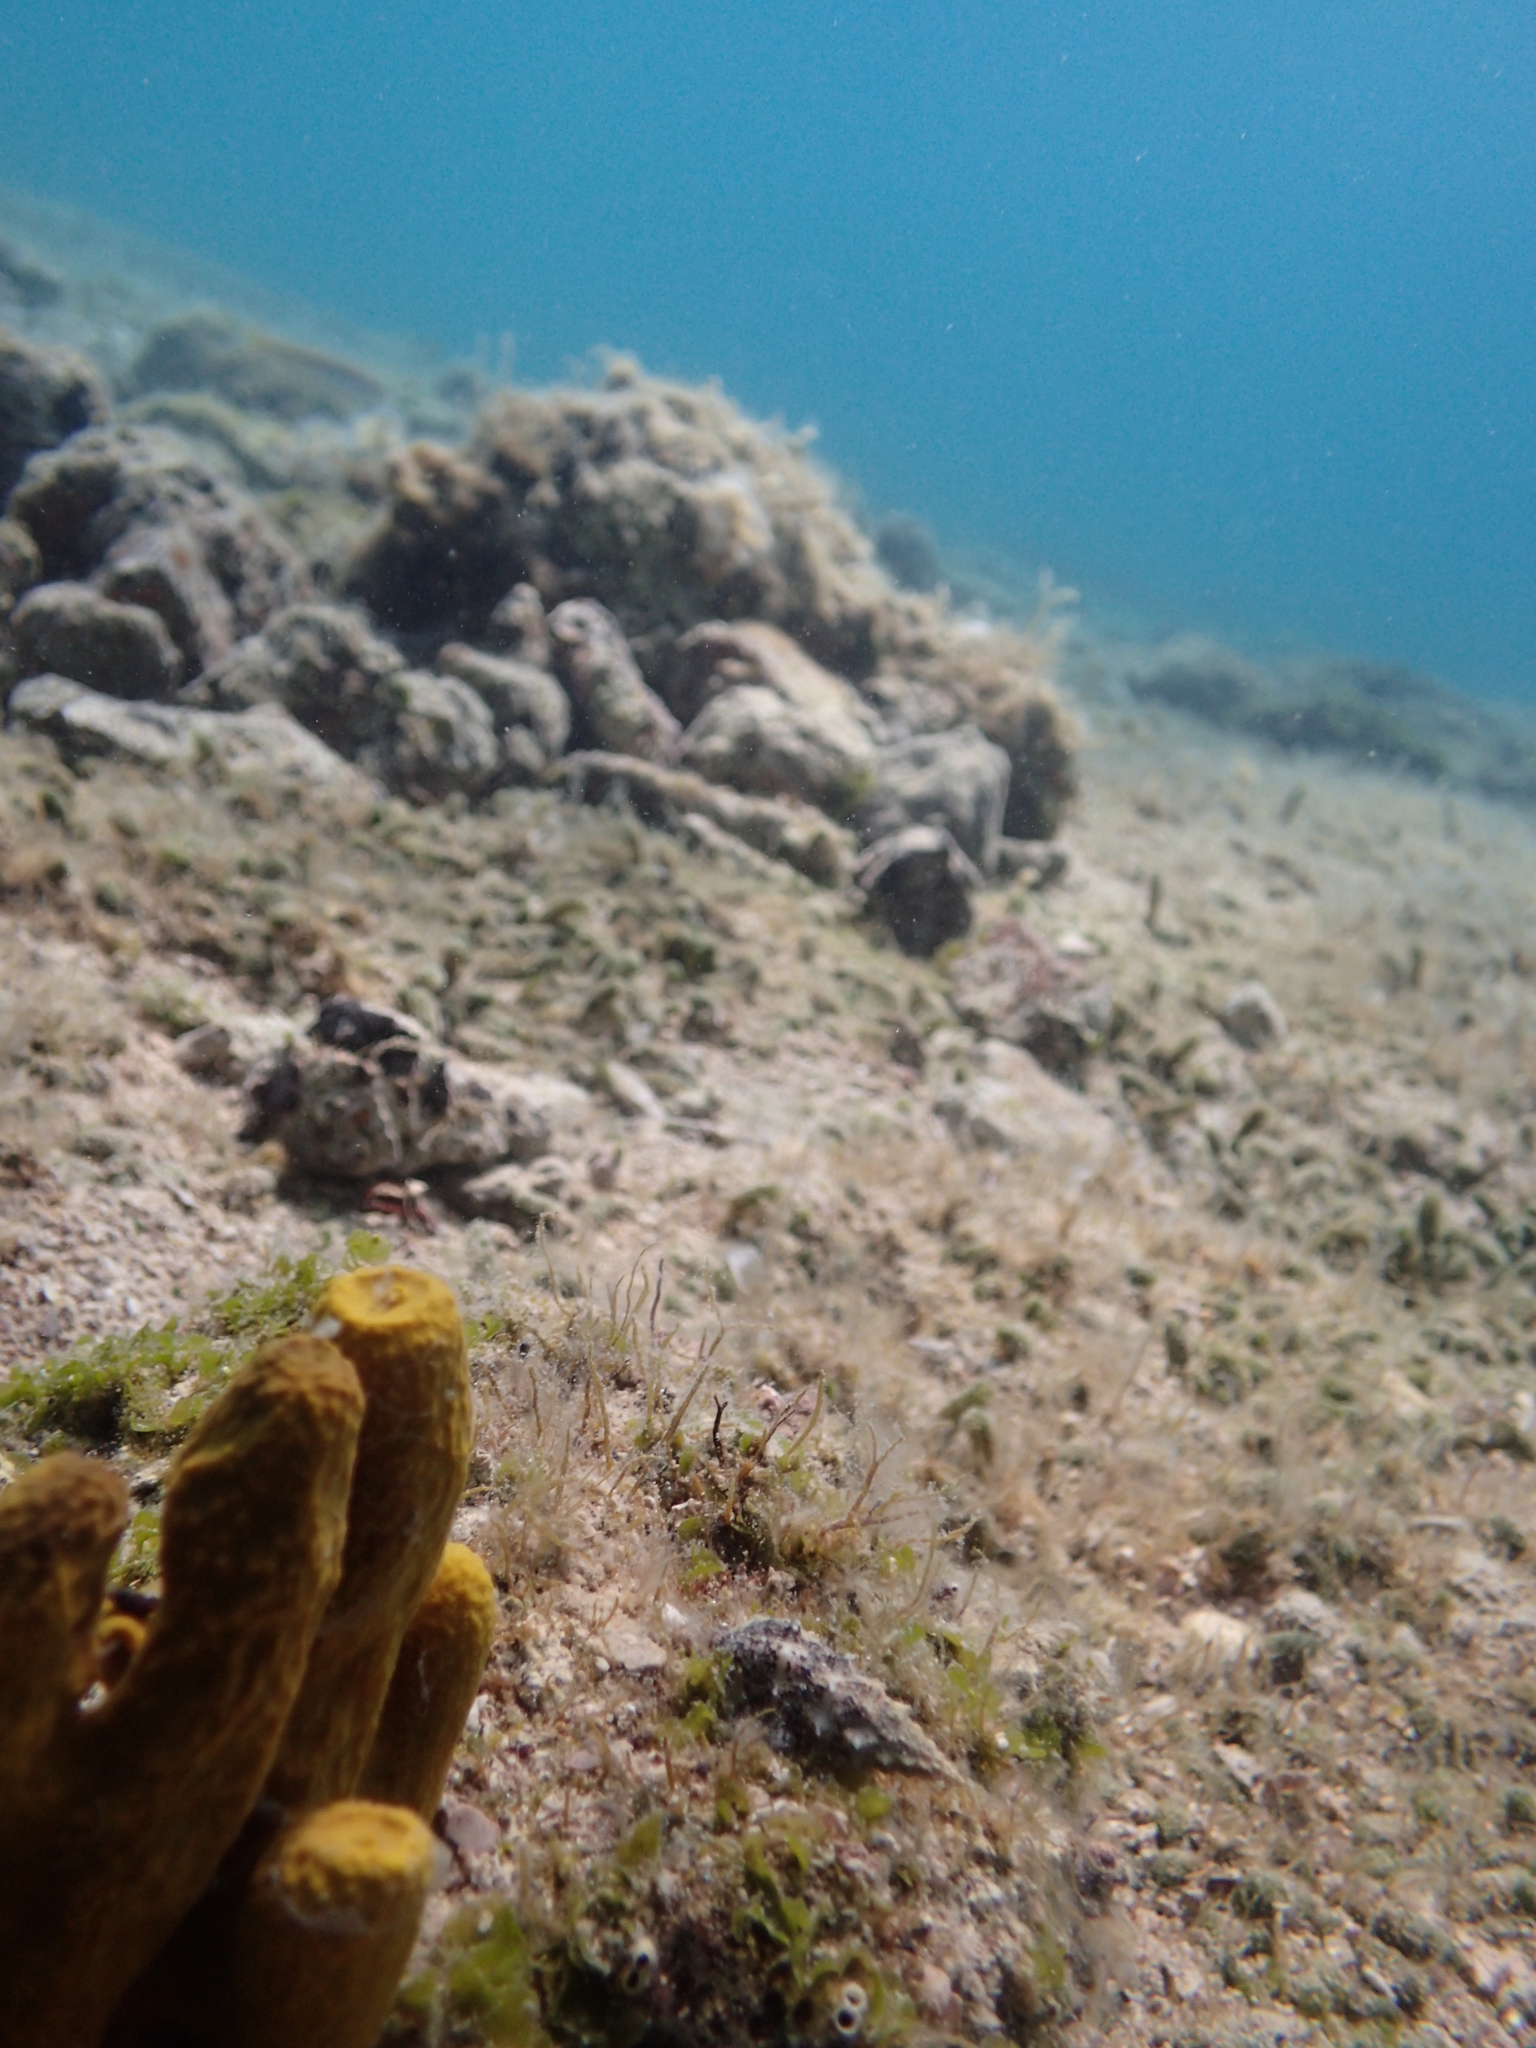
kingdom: Animalia
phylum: Porifera
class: Demospongiae
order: Verongiida
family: Aplysinidae
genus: Aplysina
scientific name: Aplysina aerophoba
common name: Aureate sponge
